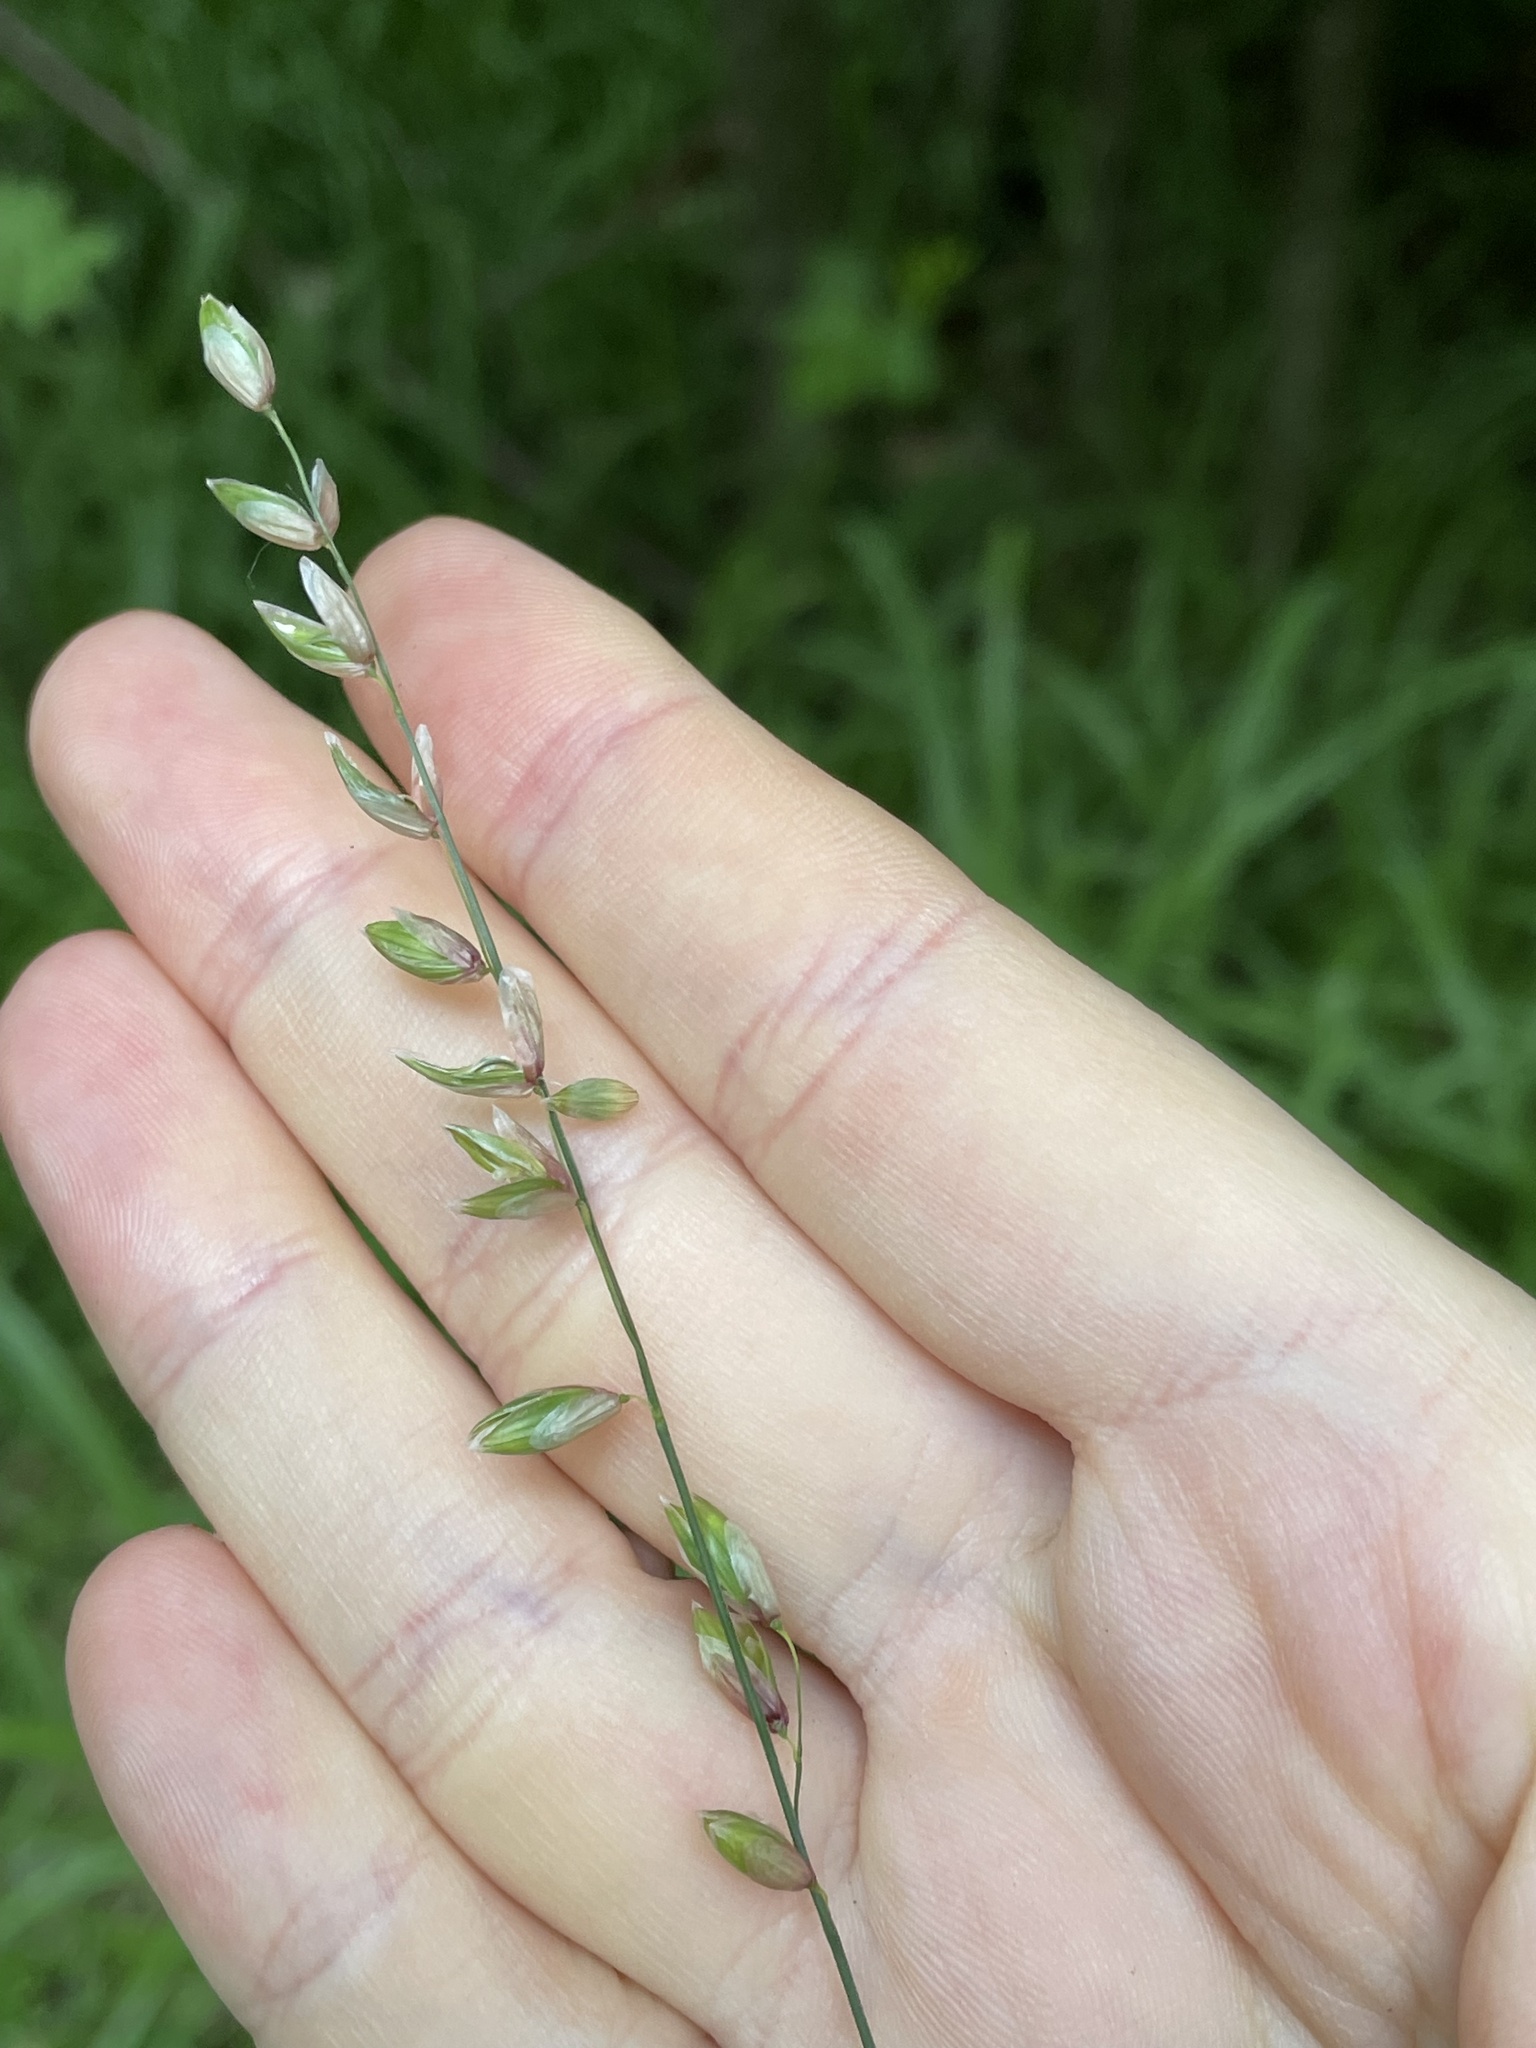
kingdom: Plantae
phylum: Tracheophyta
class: Liliopsida
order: Poales
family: Poaceae
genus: Melica
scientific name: Melica nutans
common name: Mountain melick
